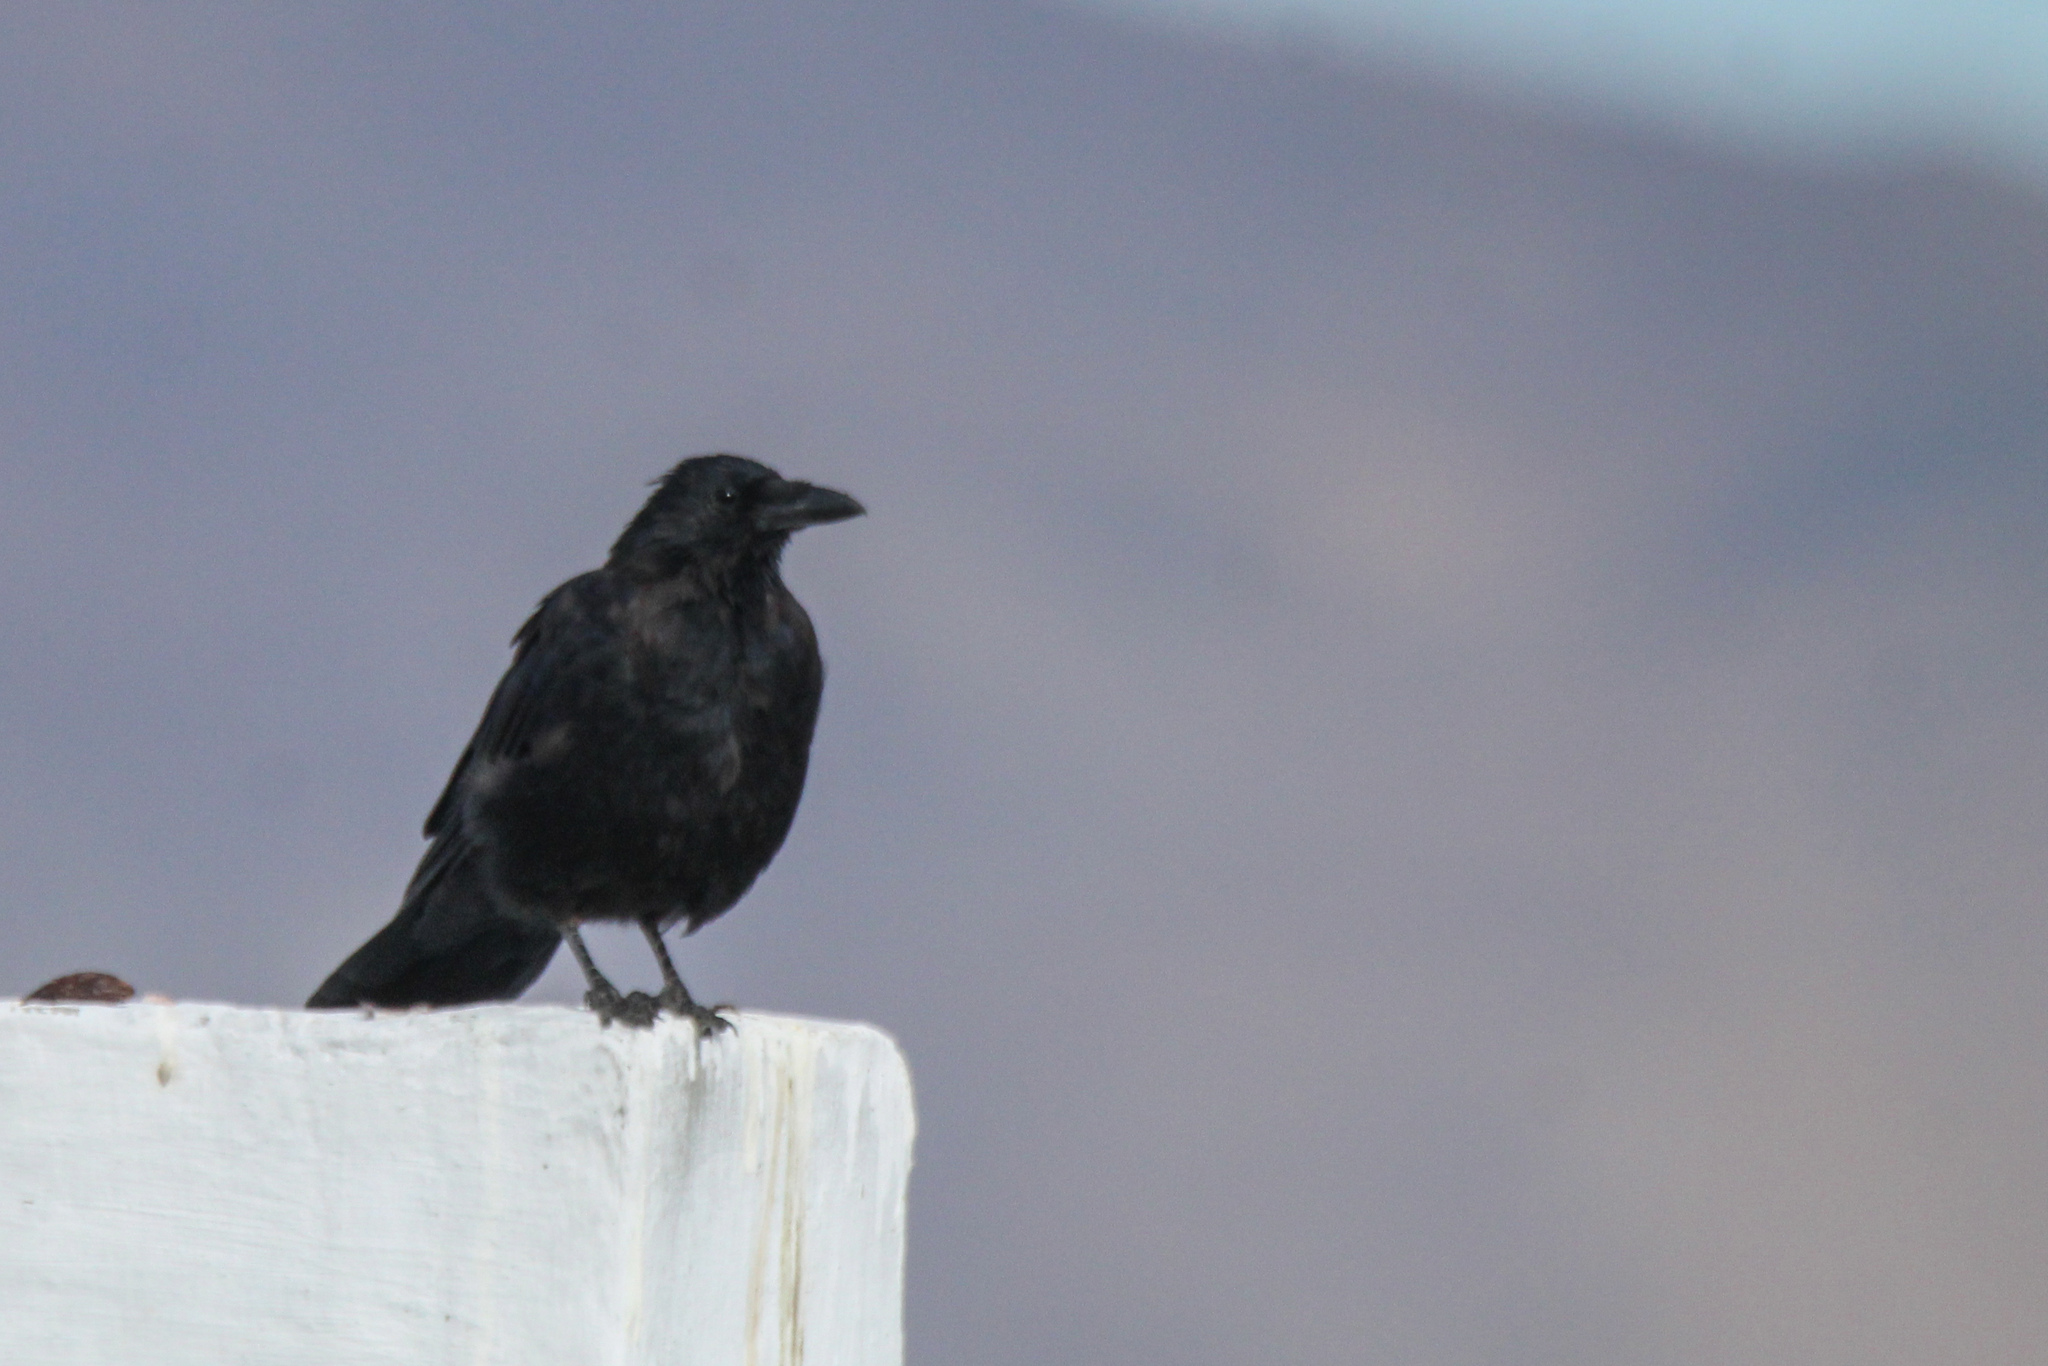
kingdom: Animalia
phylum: Chordata
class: Aves
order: Passeriformes
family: Corvidae
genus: Corvus
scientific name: Corvus corone
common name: Carrion crow
